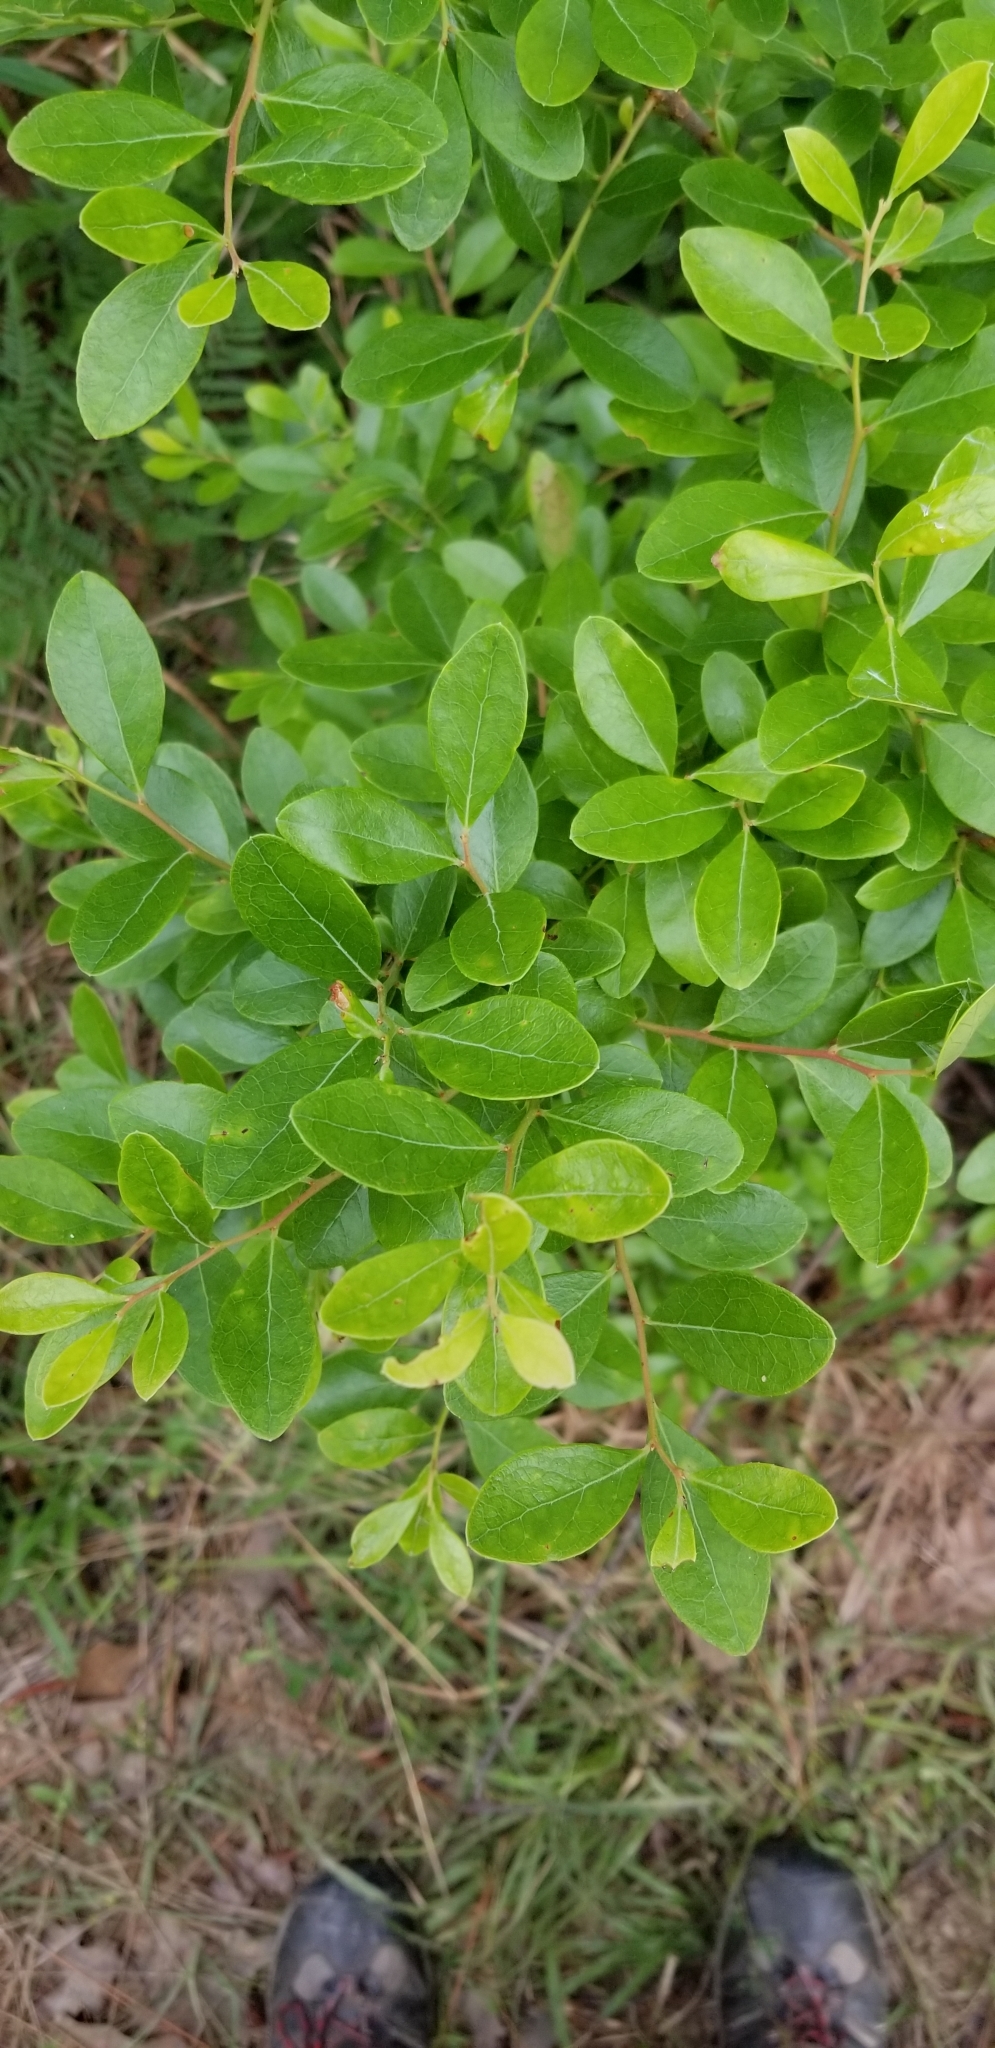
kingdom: Plantae
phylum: Tracheophyta
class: Magnoliopsida
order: Ericales
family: Ericaceae
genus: Vaccinium
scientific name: Vaccinium arboreum
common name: Farkleberry
